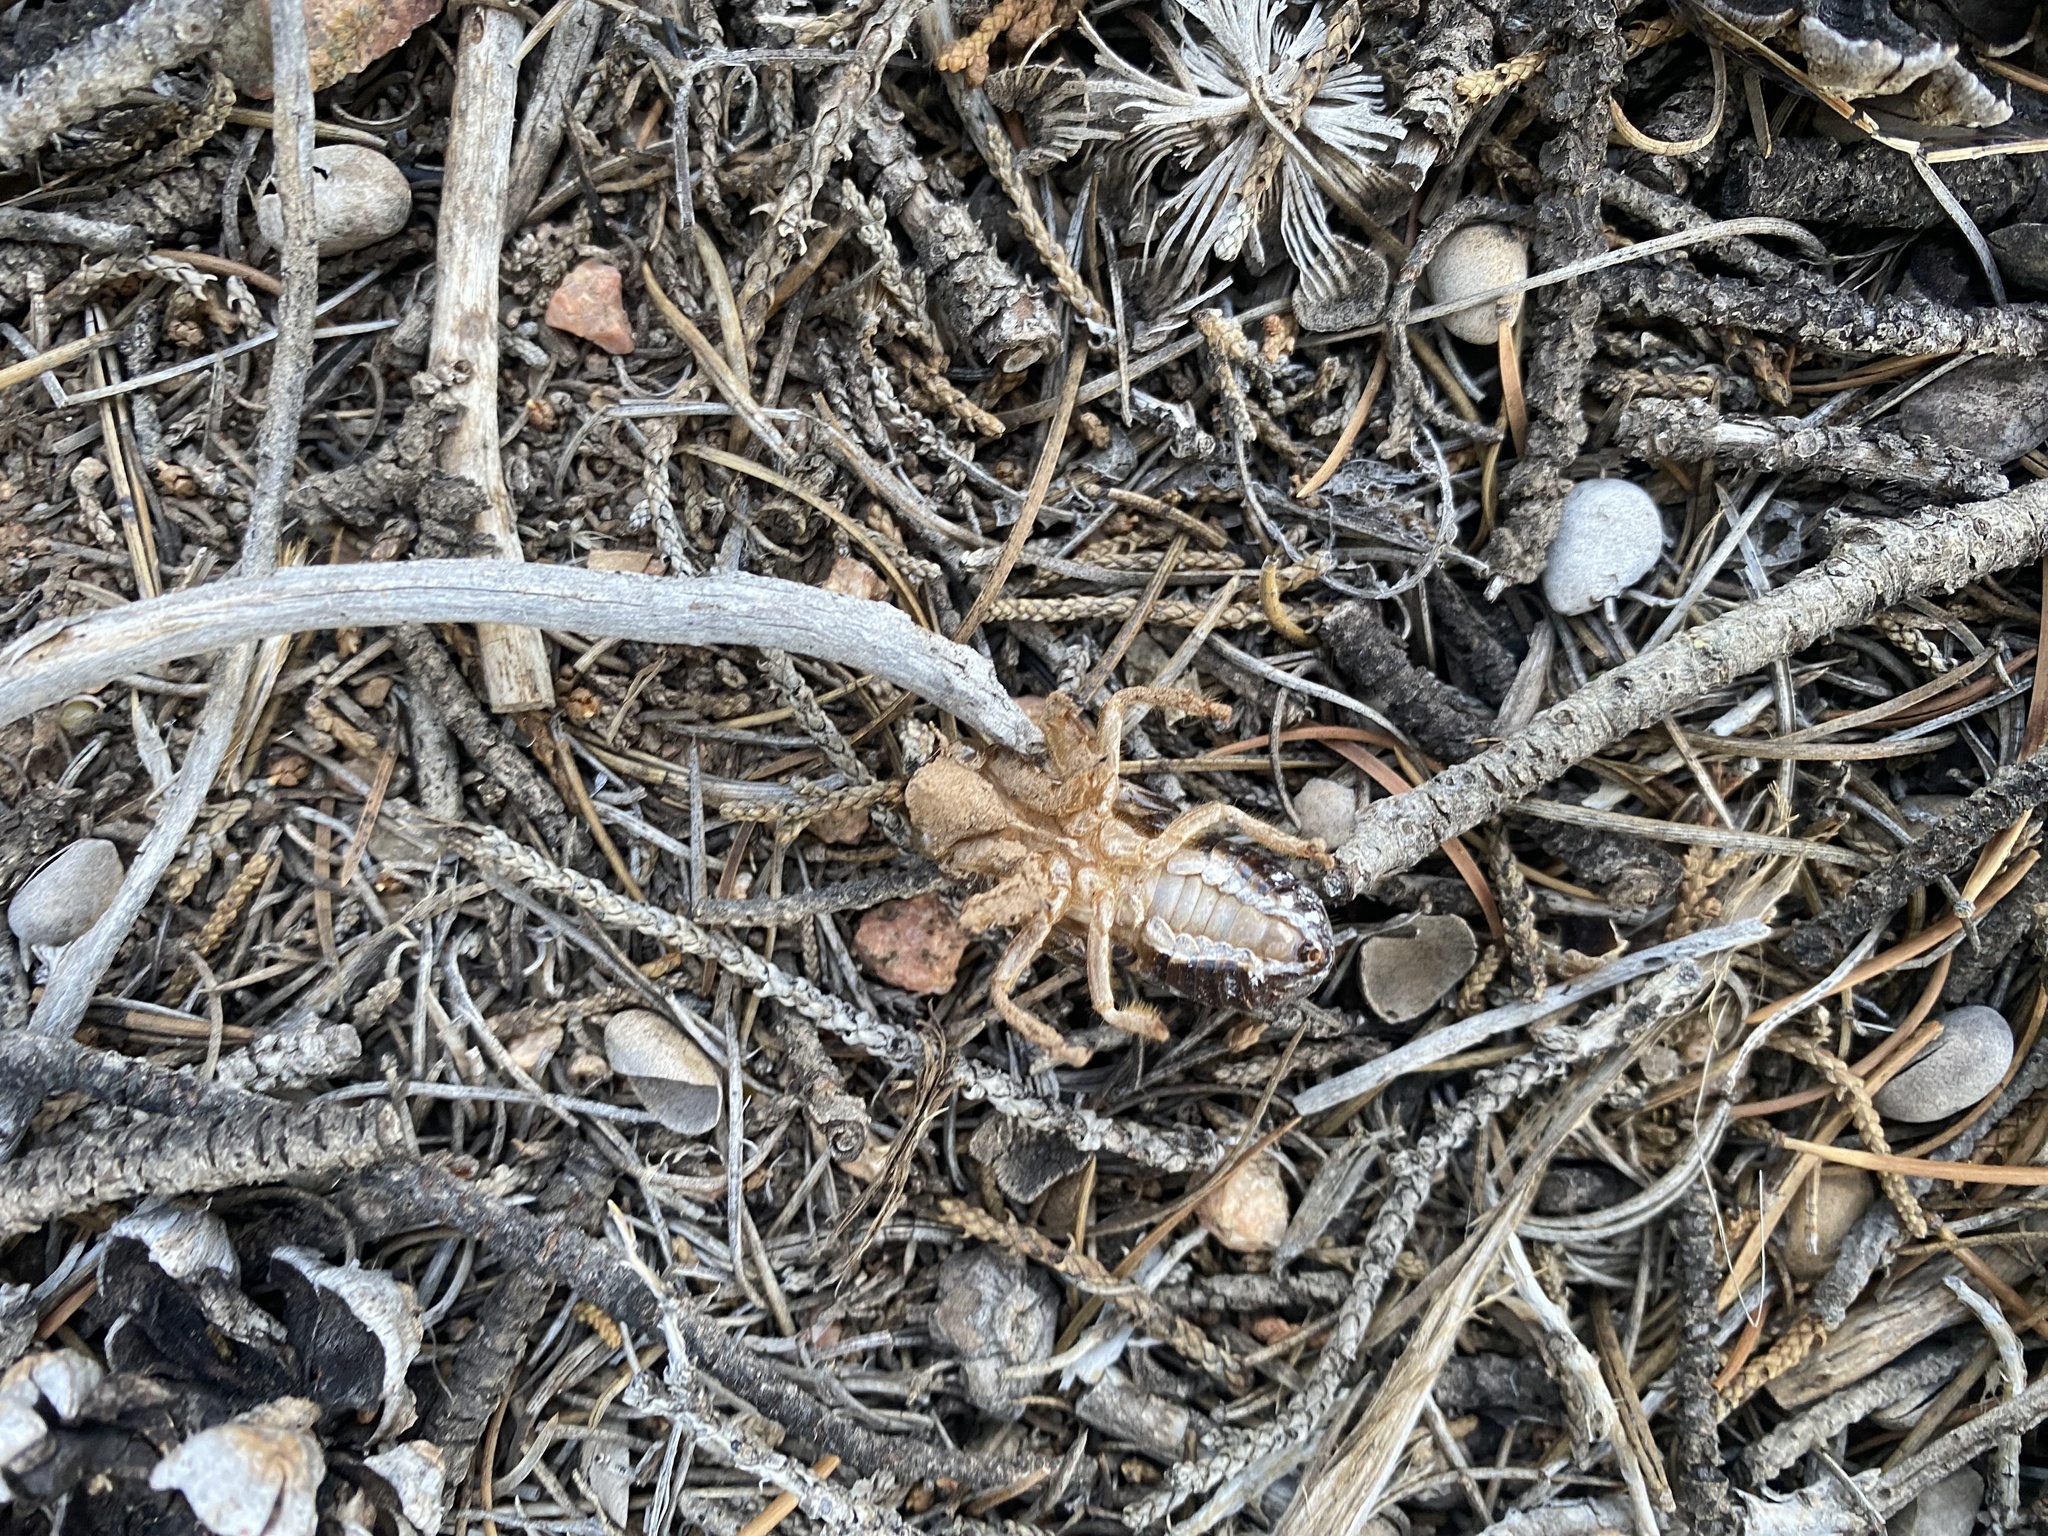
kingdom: Animalia
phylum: Arthropoda
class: Insecta
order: Hemiptera
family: Cicadidae
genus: Okanagana
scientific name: Okanagana magnifica
